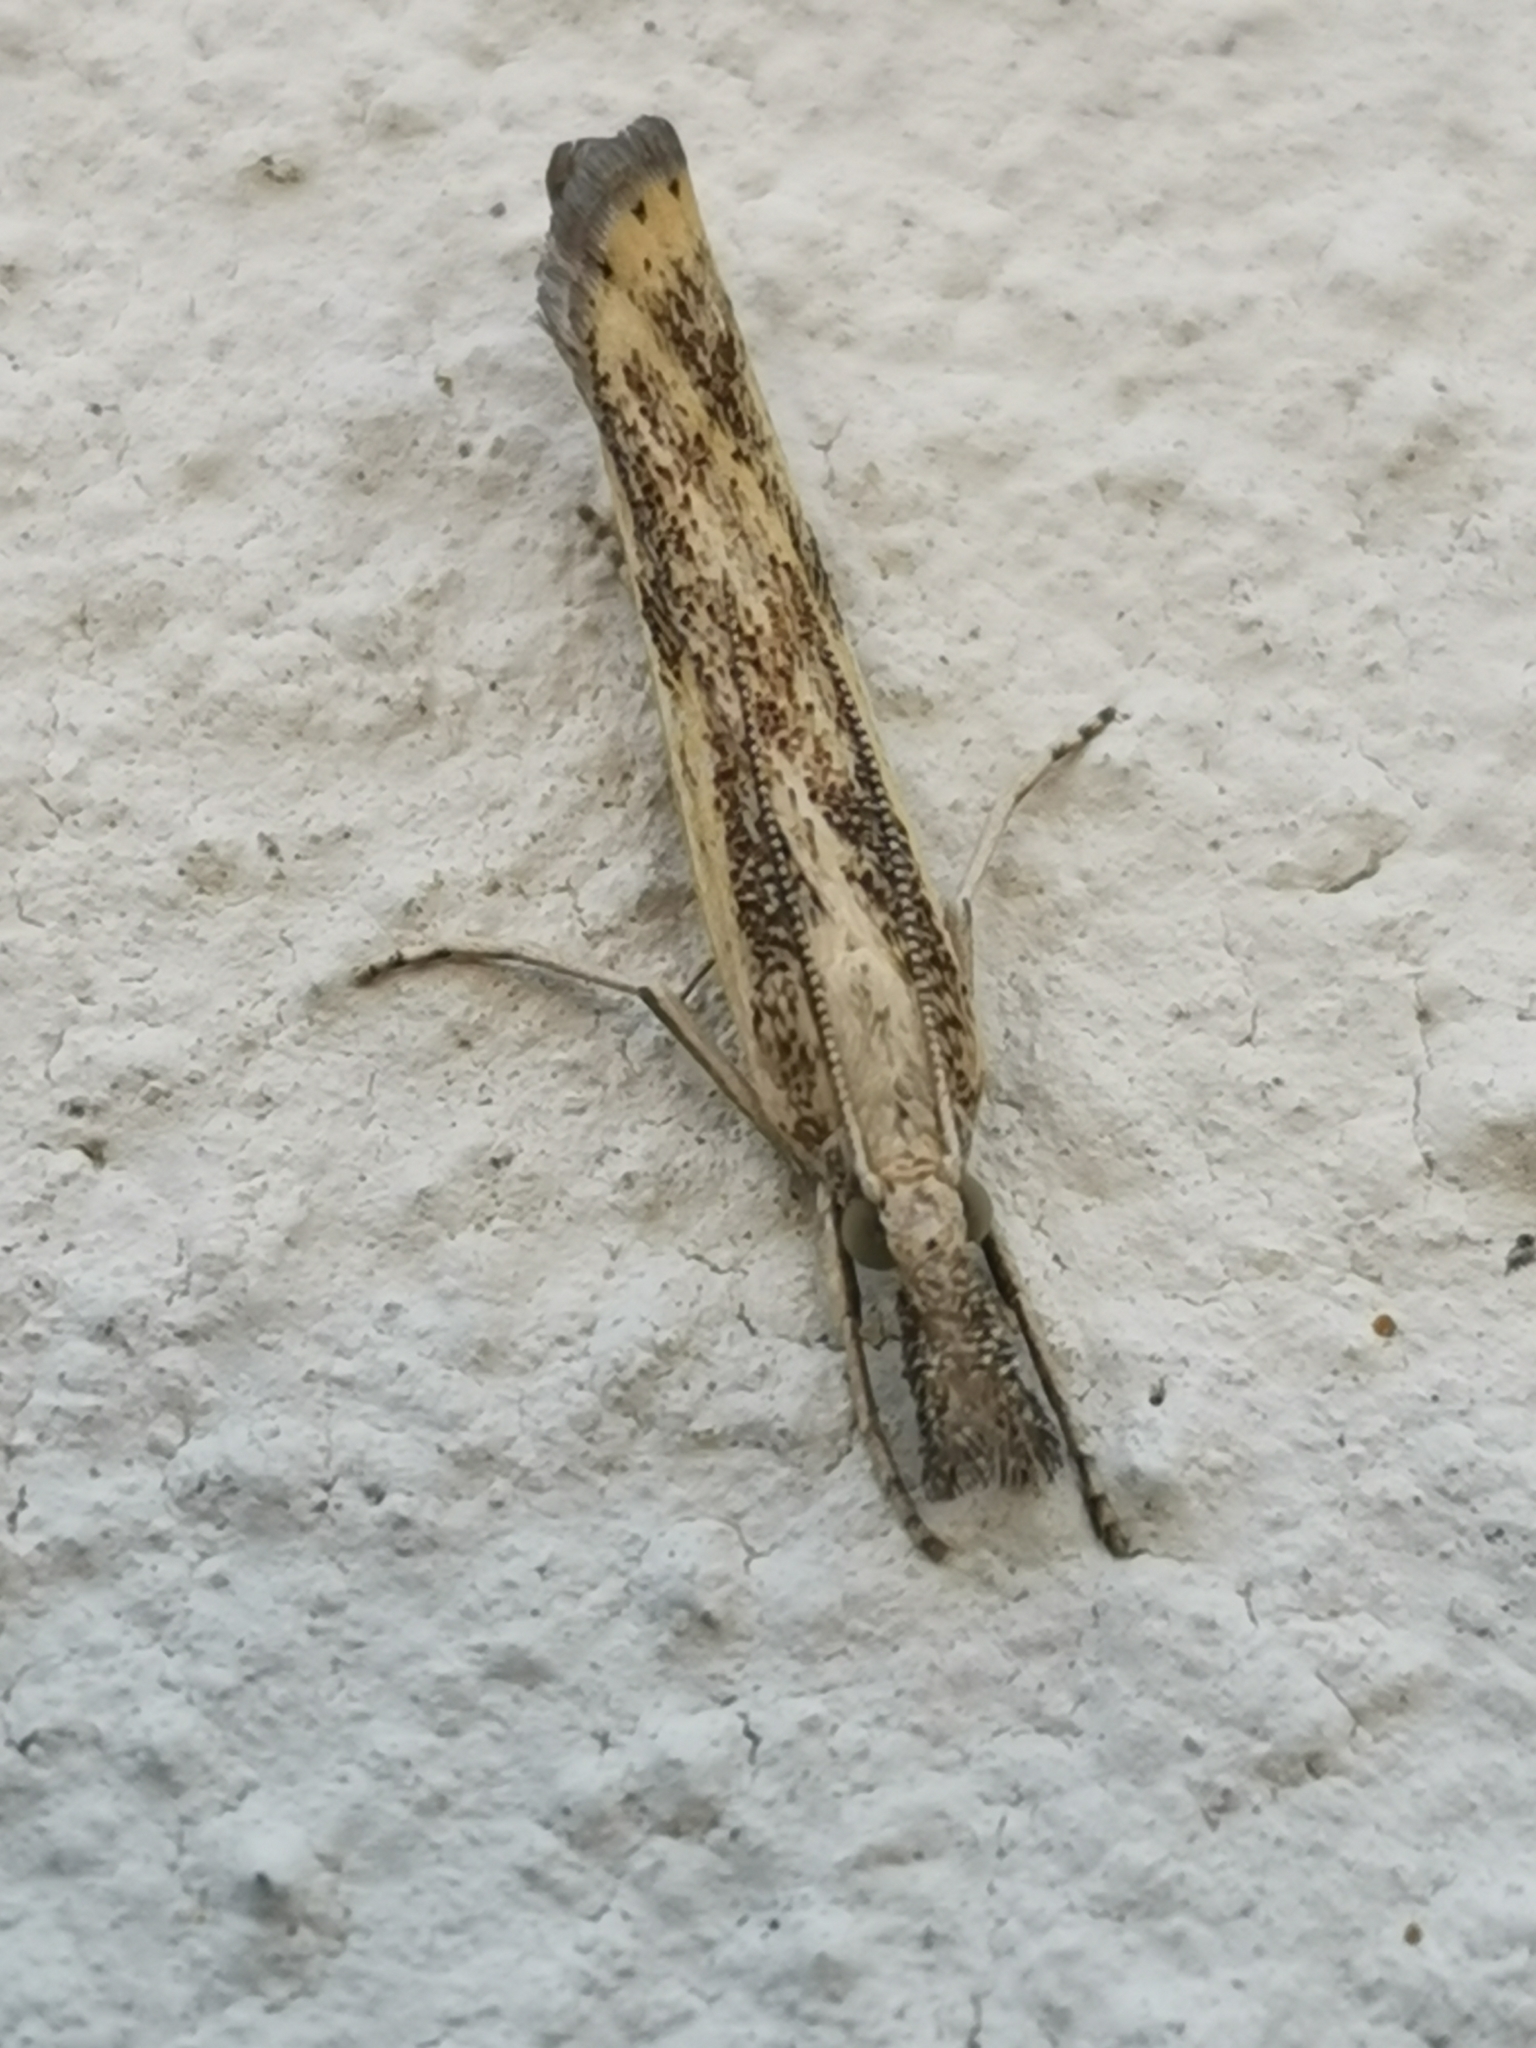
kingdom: Animalia
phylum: Arthropoda
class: Insecta
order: Lepidoptera
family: Crambidae
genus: Agriphila
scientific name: Agriphila inquinatella
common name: Barred grass-veneer
